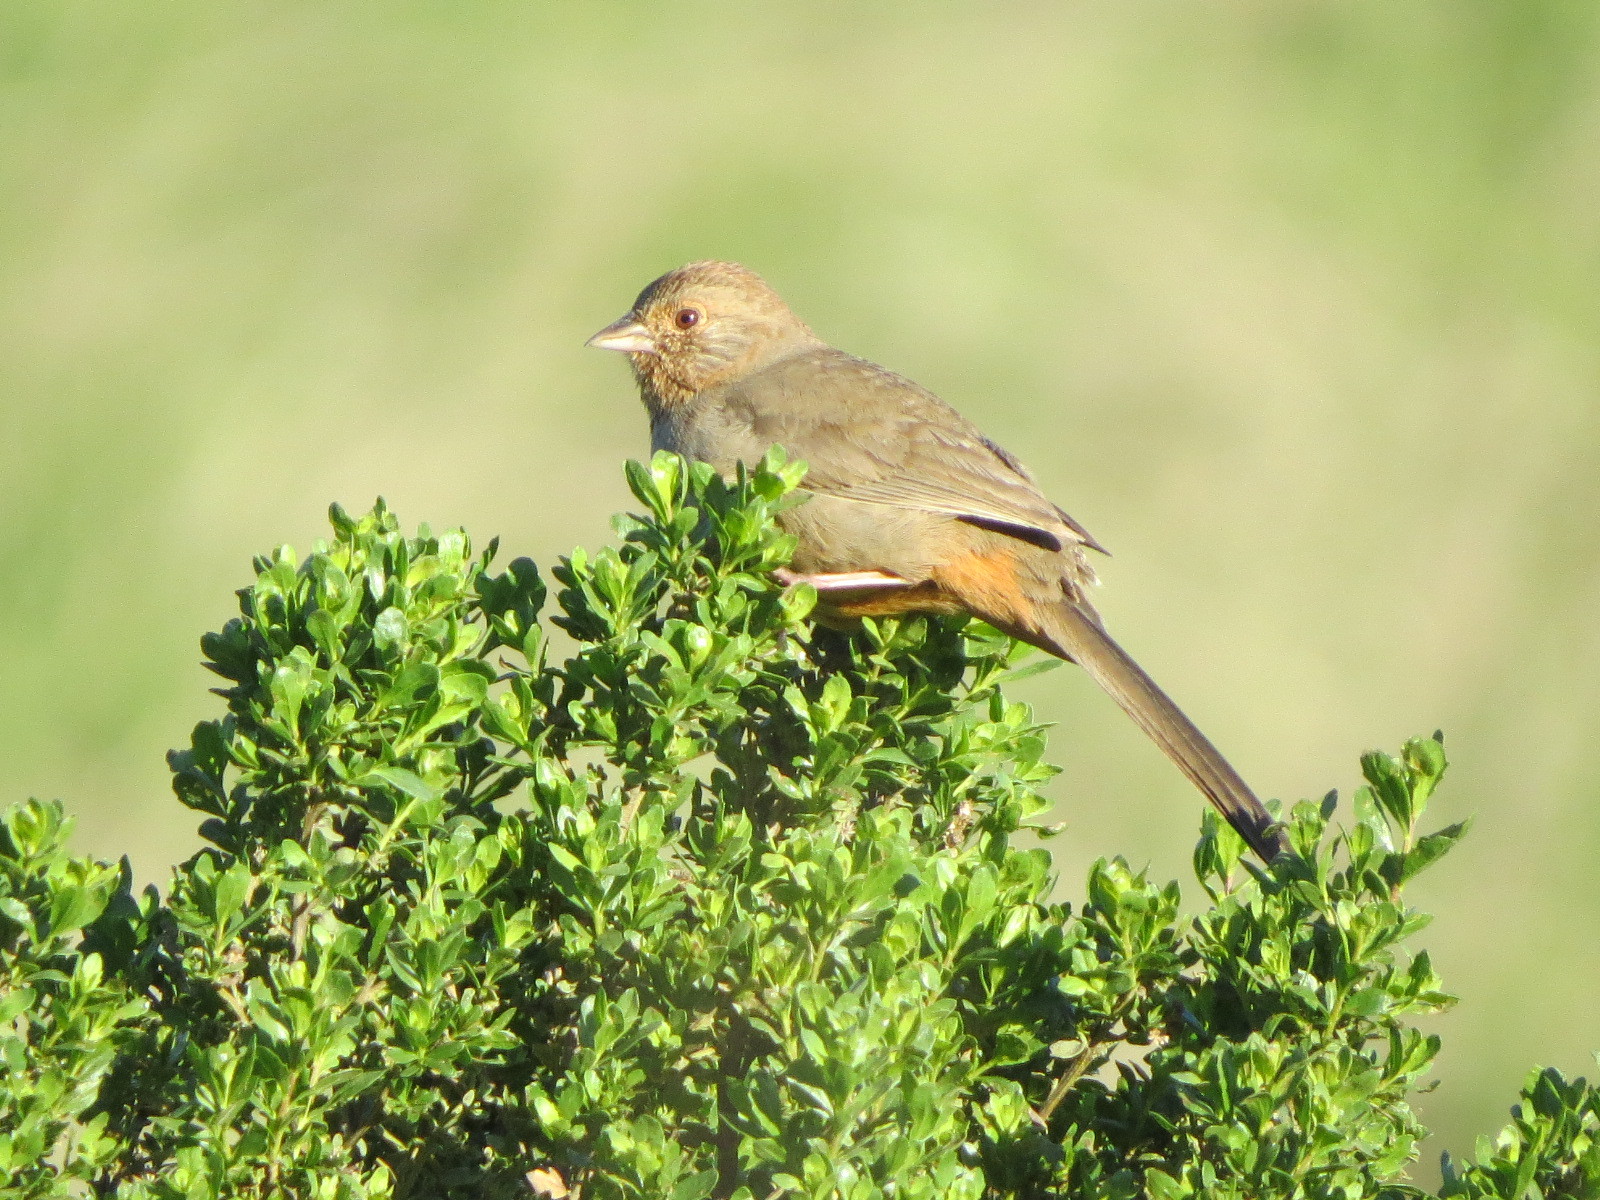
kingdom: Animalia
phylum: Chordata
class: Aves
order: Passeriformes
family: Passerellidae
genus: Melozone
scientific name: Melozone crissalis
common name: California towhee
